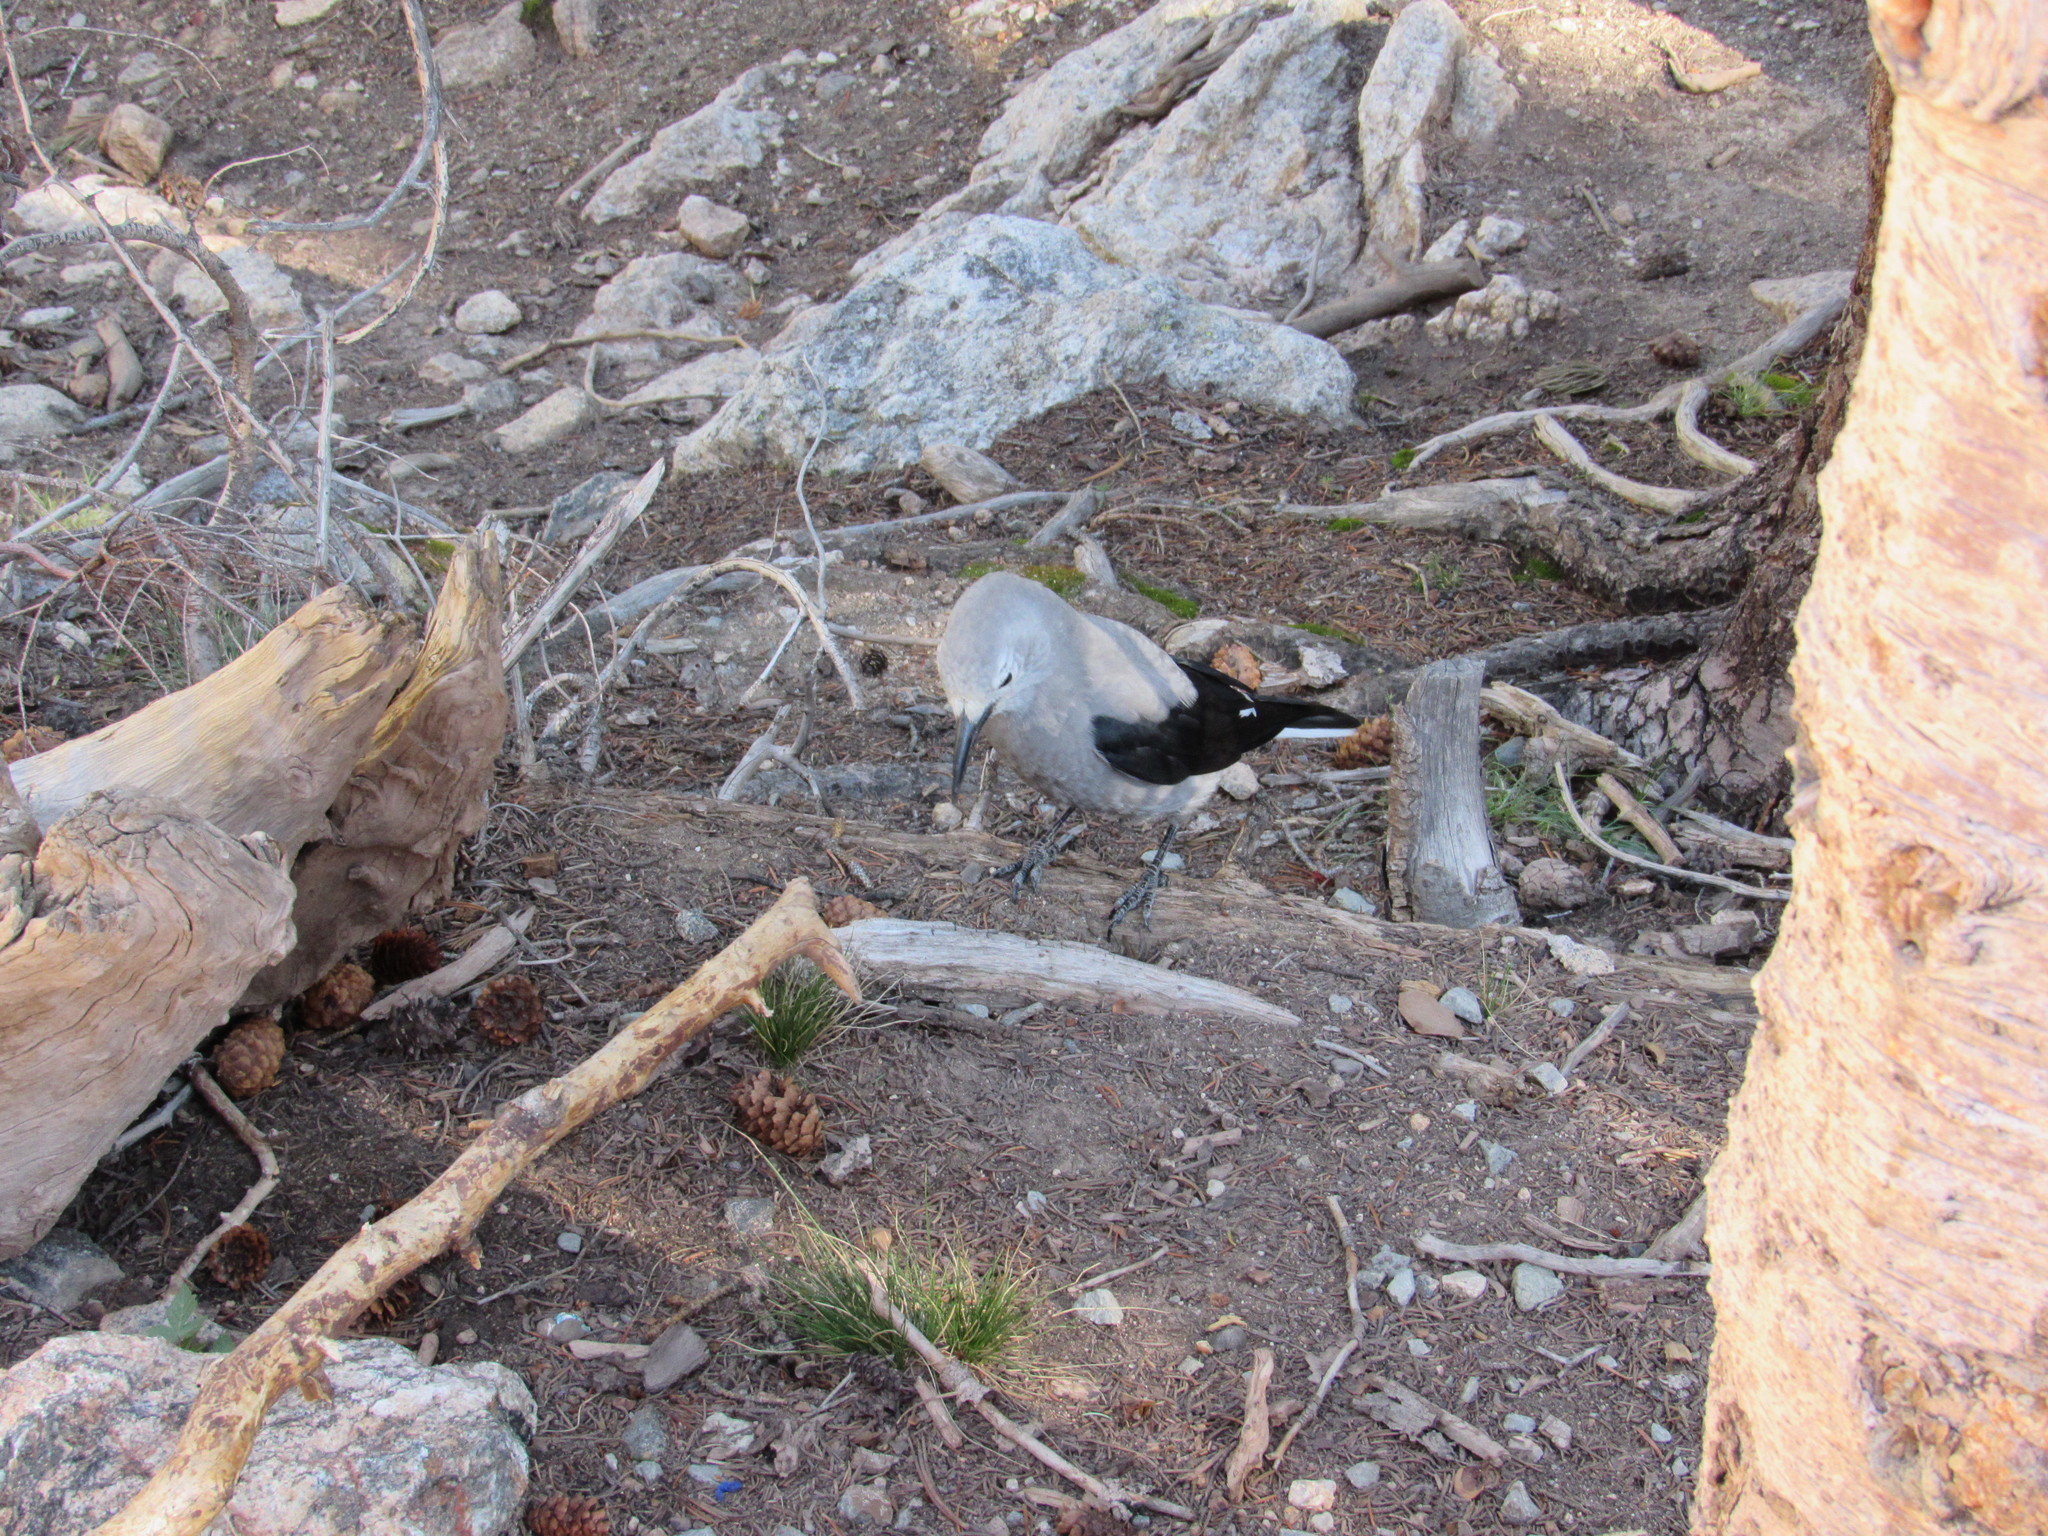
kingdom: Animalia
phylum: Chordata
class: Aves
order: Passeriformes
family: Corvidae
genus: Nucifraga
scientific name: Nucifraga columbiana
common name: Clark's nutcracker
